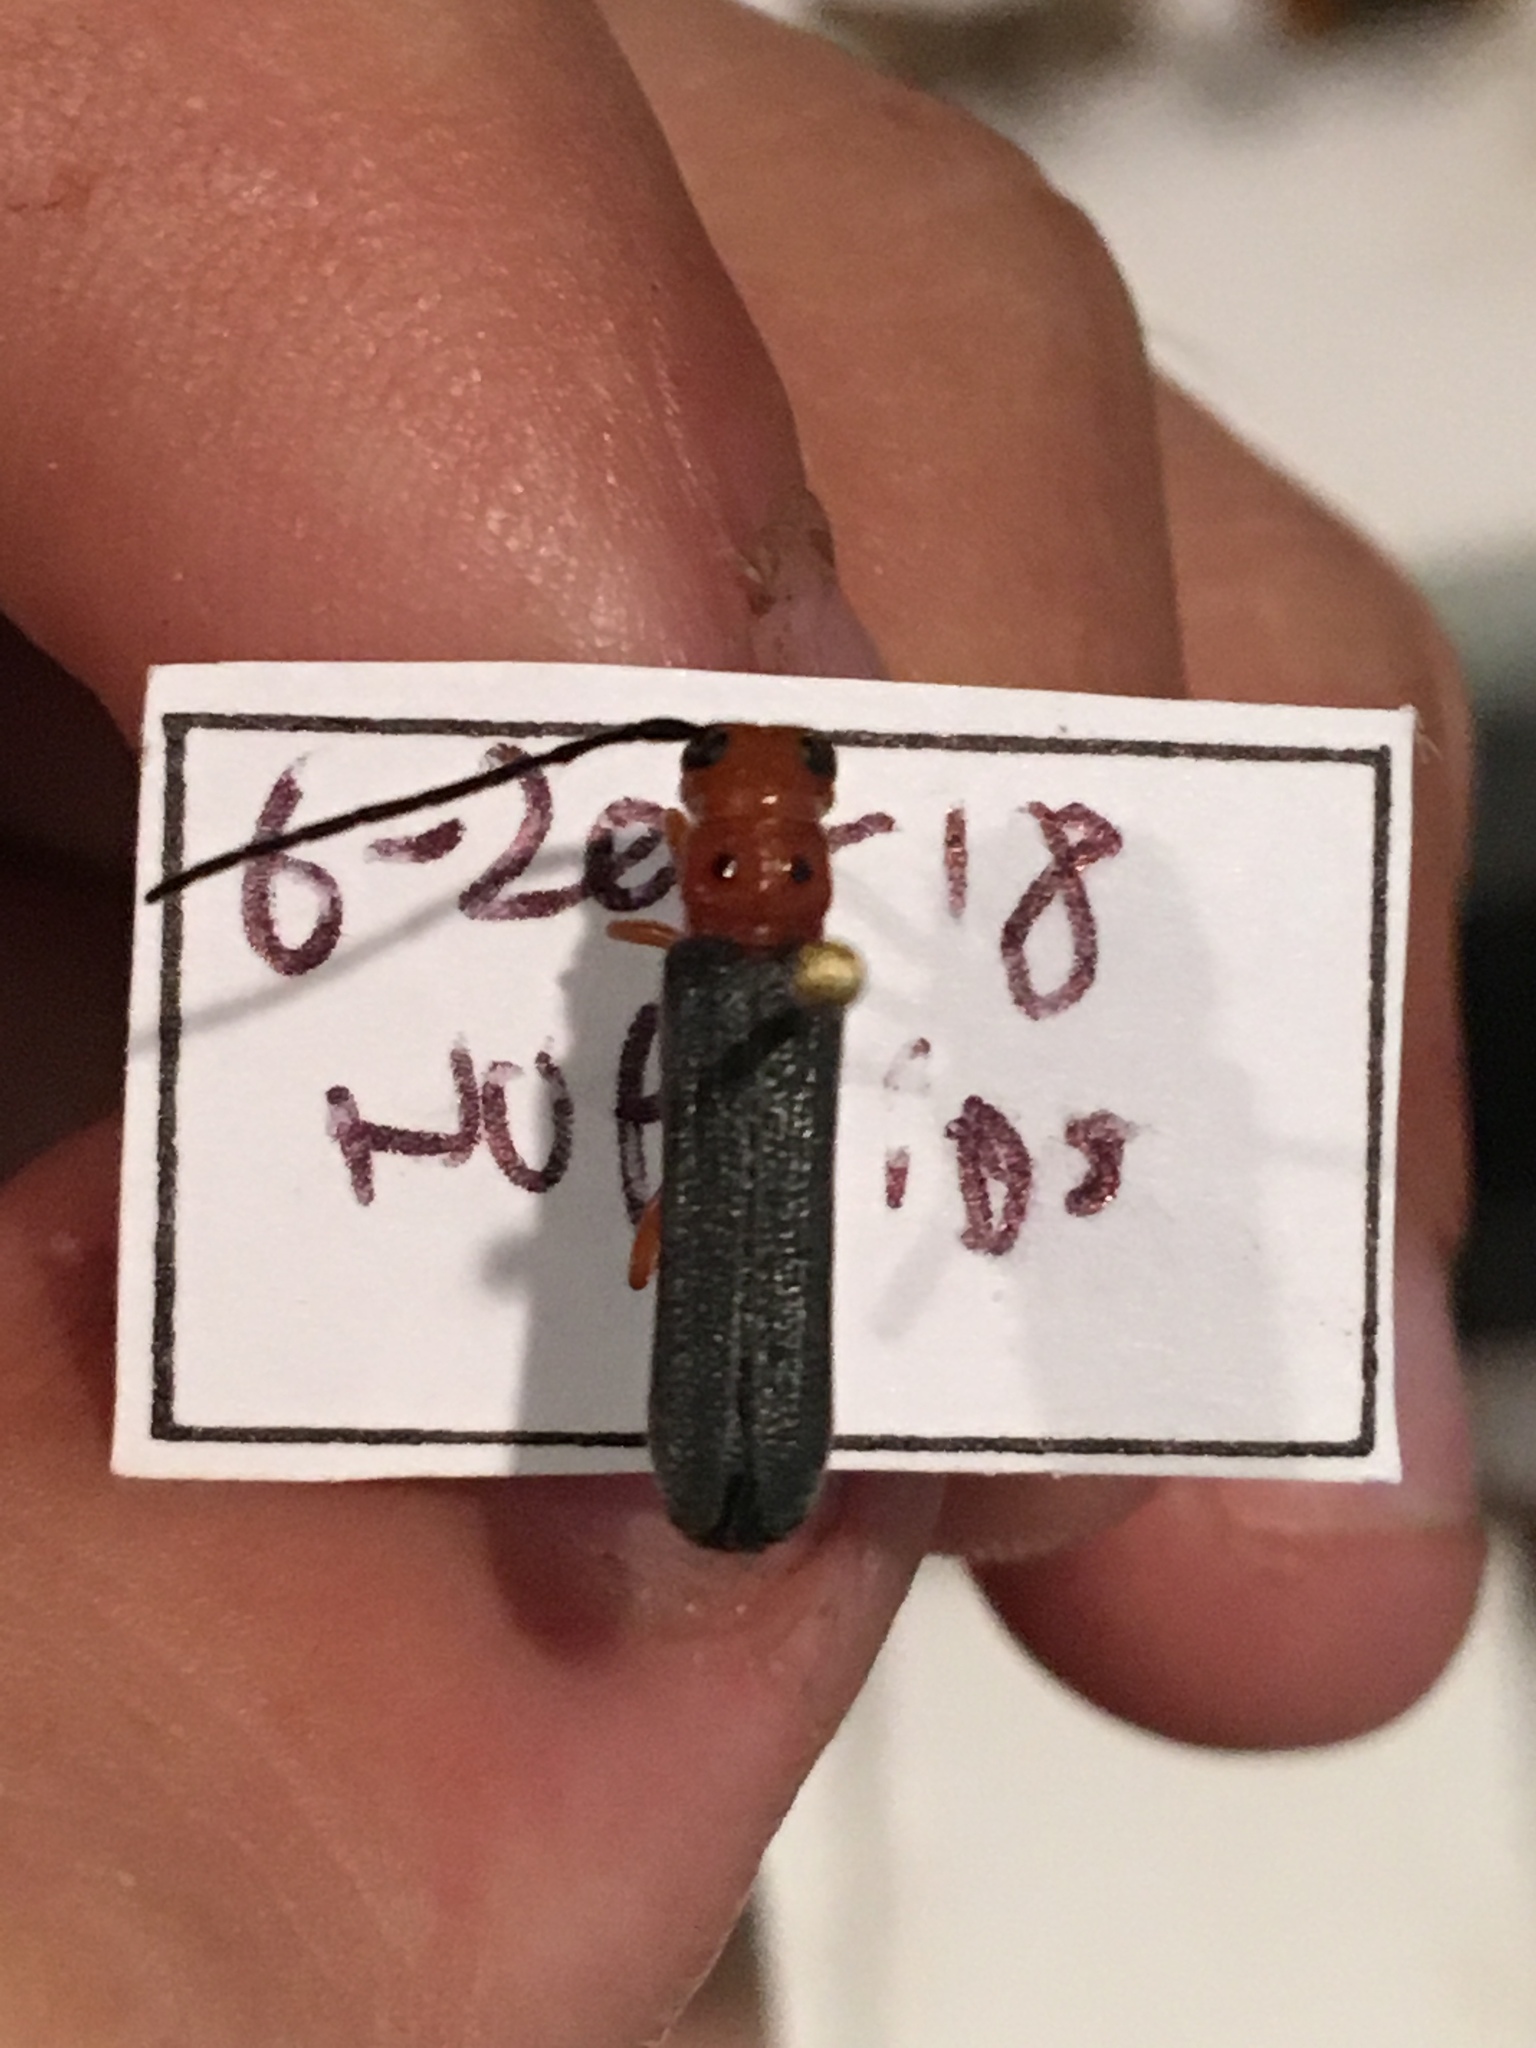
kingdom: Animalia
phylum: Arthropoda
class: Insecta
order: Coleoptera
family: Cerambycidae
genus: Oberea
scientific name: Oberea ocellata
